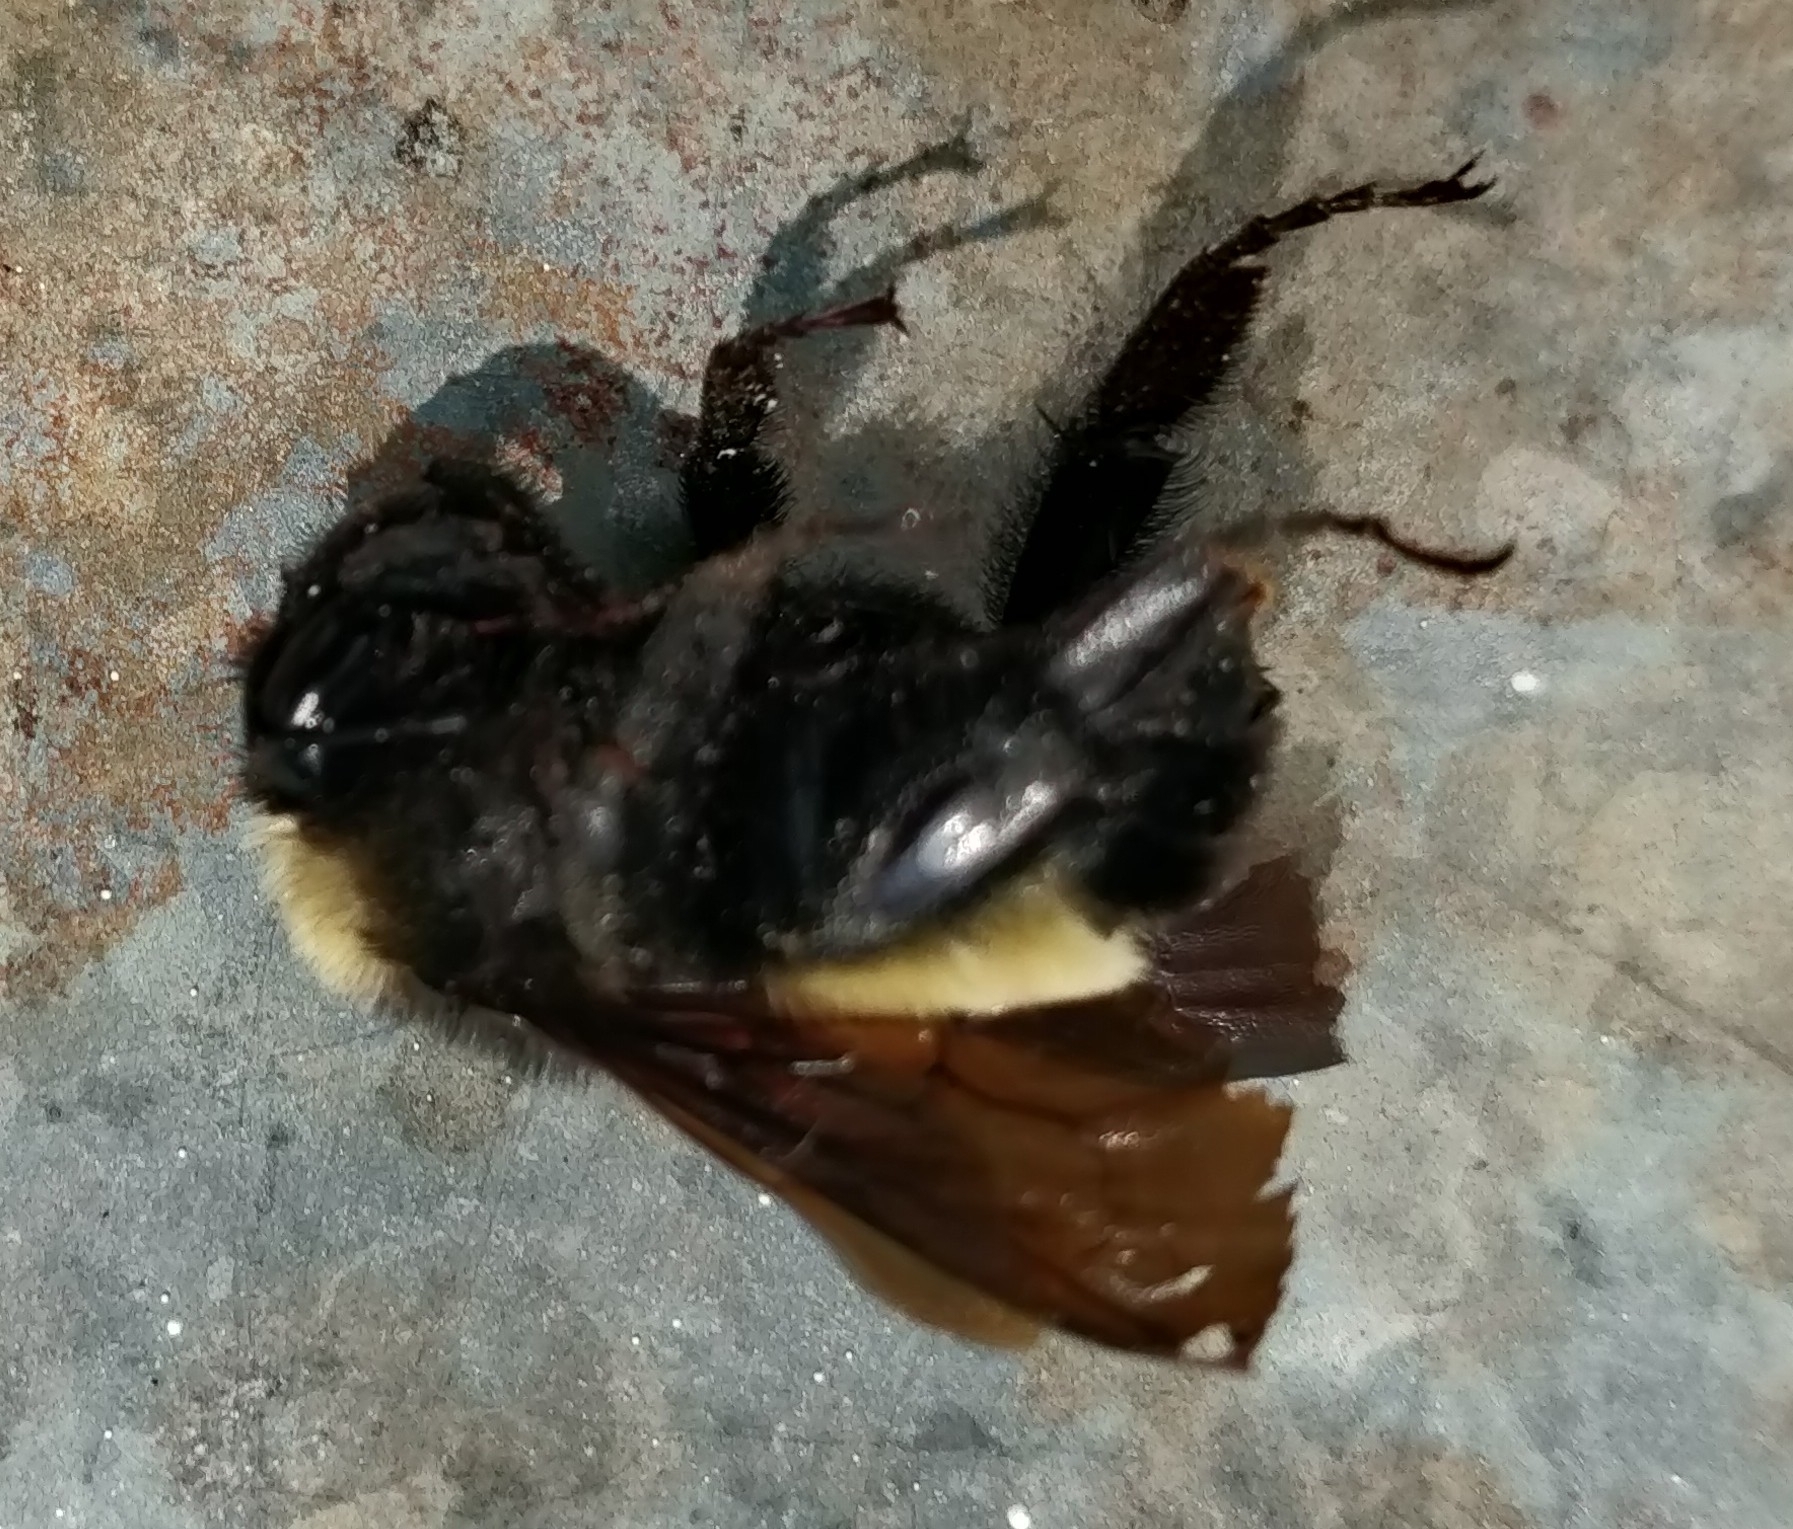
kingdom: Animalia
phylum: Arthropoda
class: Insecta
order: Hymenoptera
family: Apidae
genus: Bombus
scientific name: Bombus pensylvanicus
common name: Bumble bee
